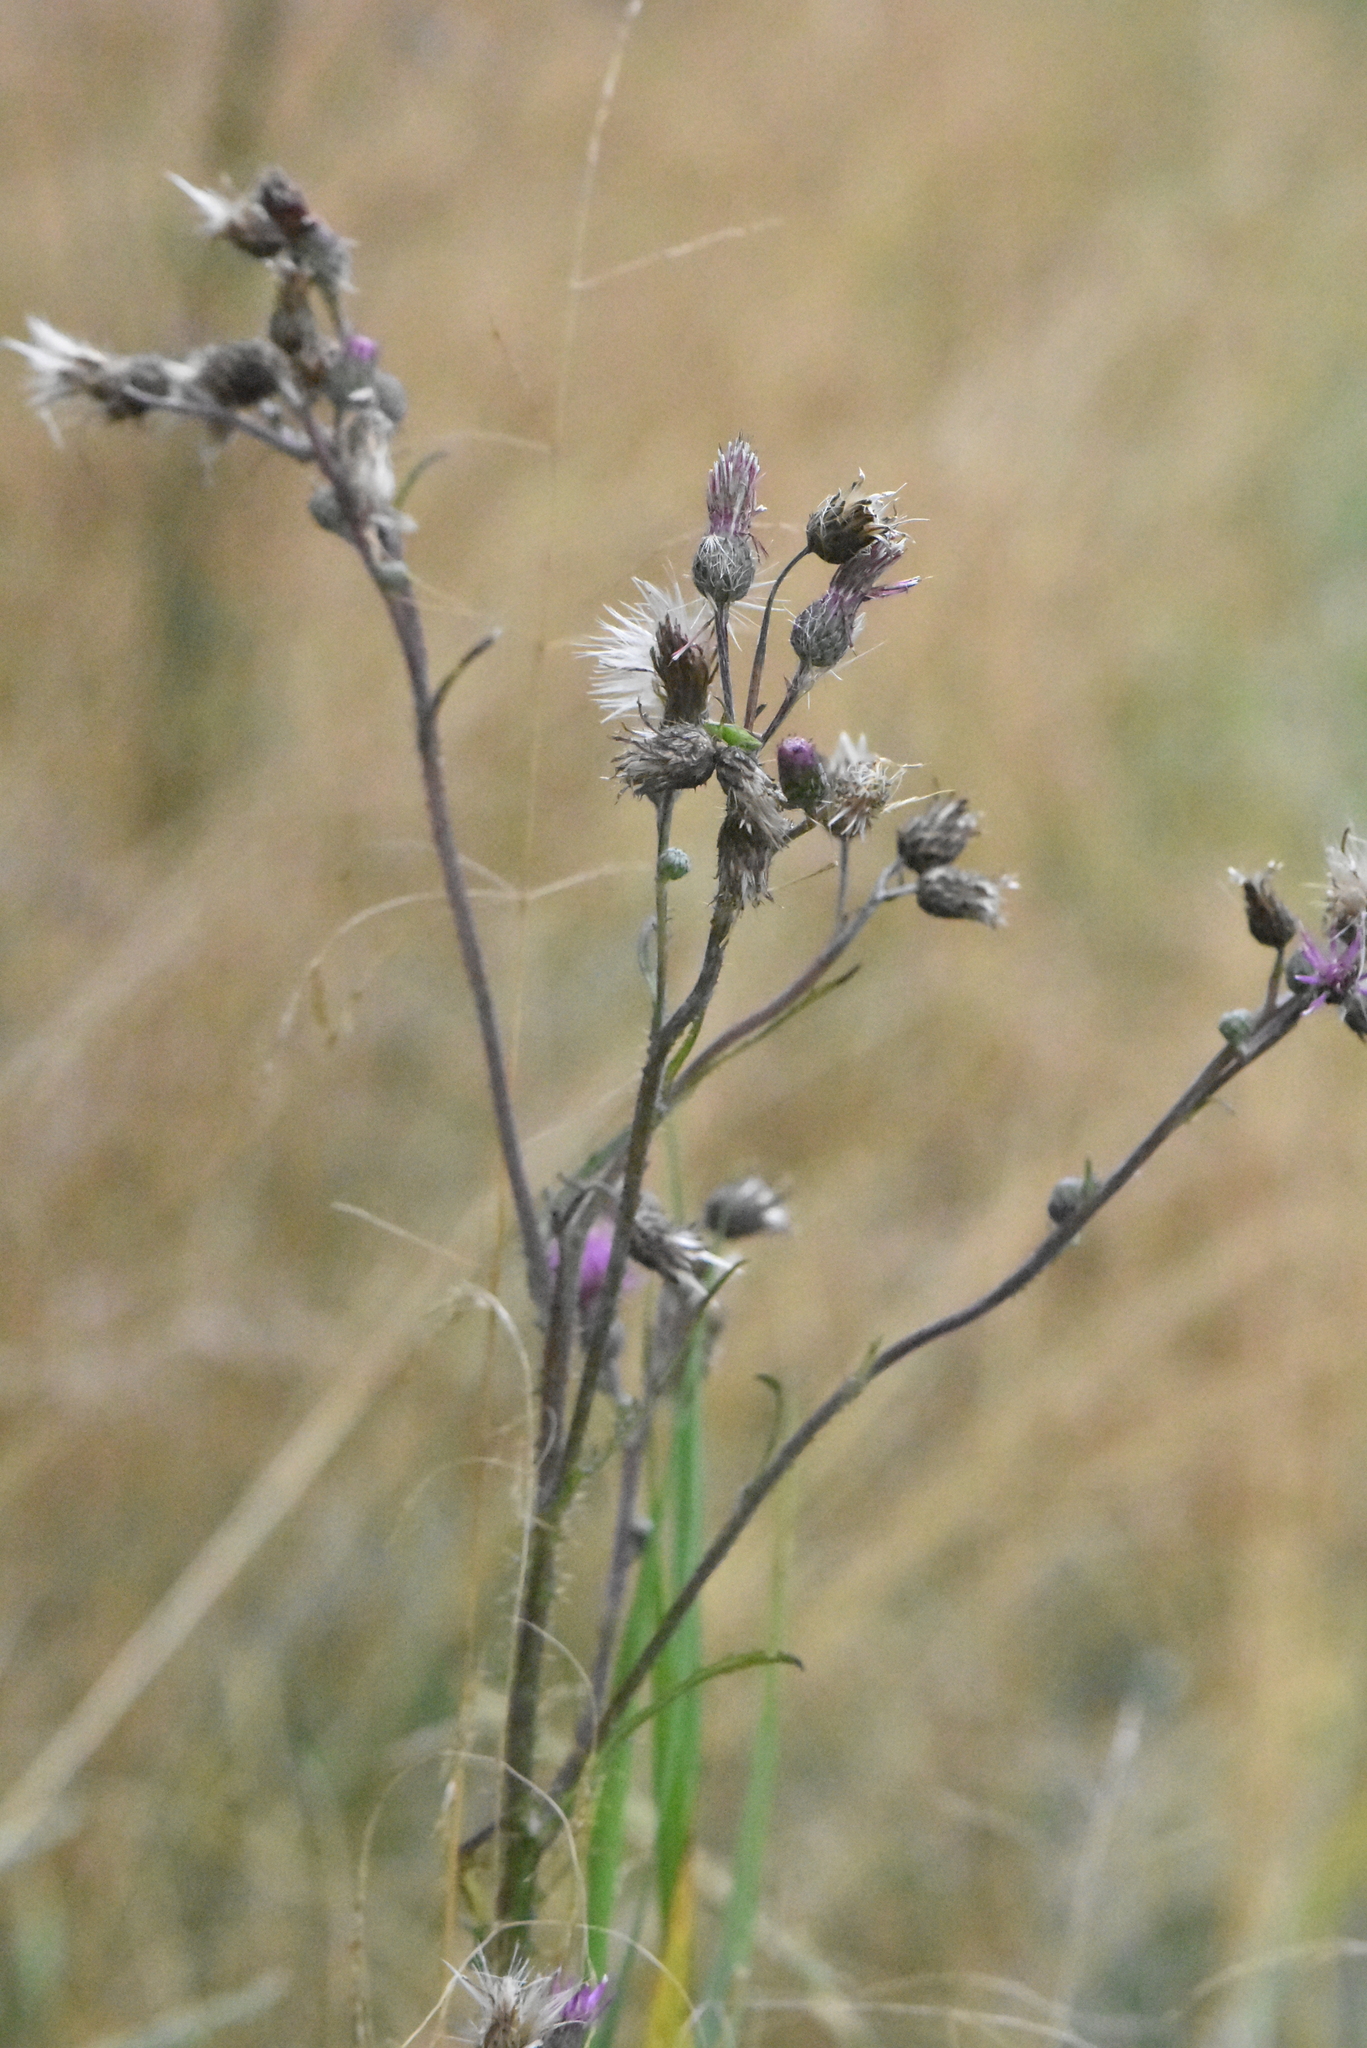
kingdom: Plantae
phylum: Tracheophyta
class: Magnoliopsida
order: Asterales
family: Asteraceae
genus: Cirsium
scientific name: Cirsium palustre
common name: Marsh thistle
